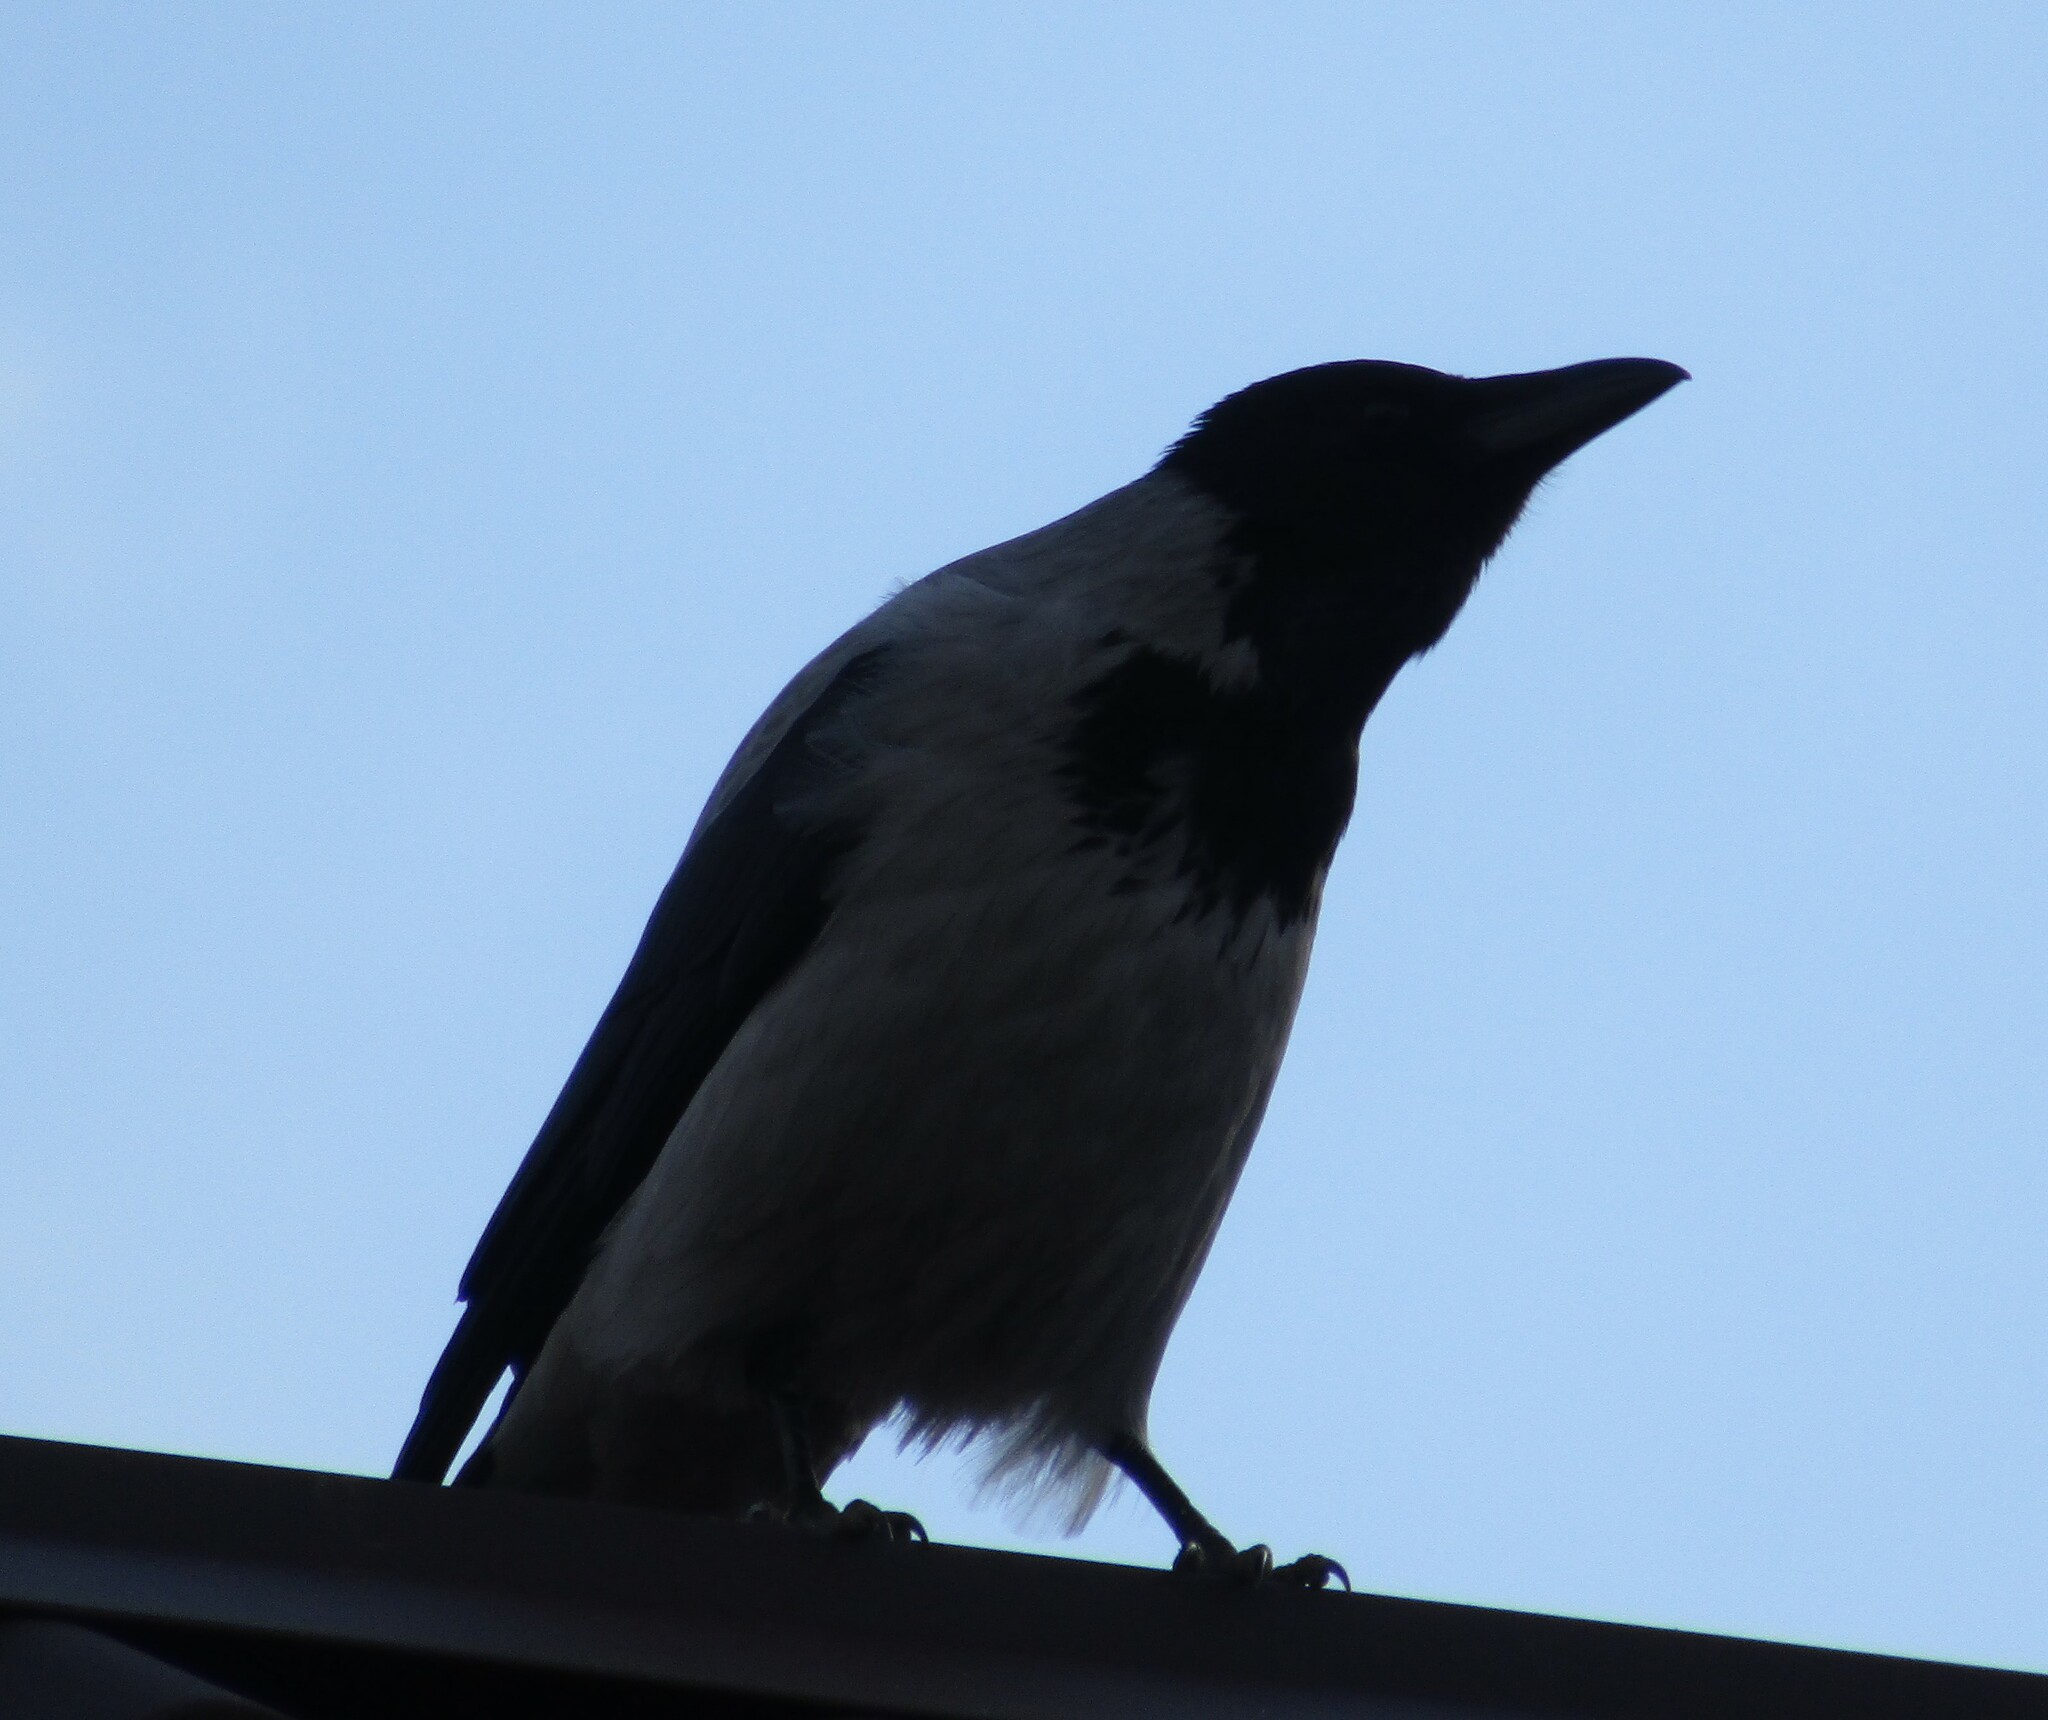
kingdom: Animalia
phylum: Chordata
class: Aves
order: Passeriformes
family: Corvidae
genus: Corvus
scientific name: Corvus cornix
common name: Hooded crow
